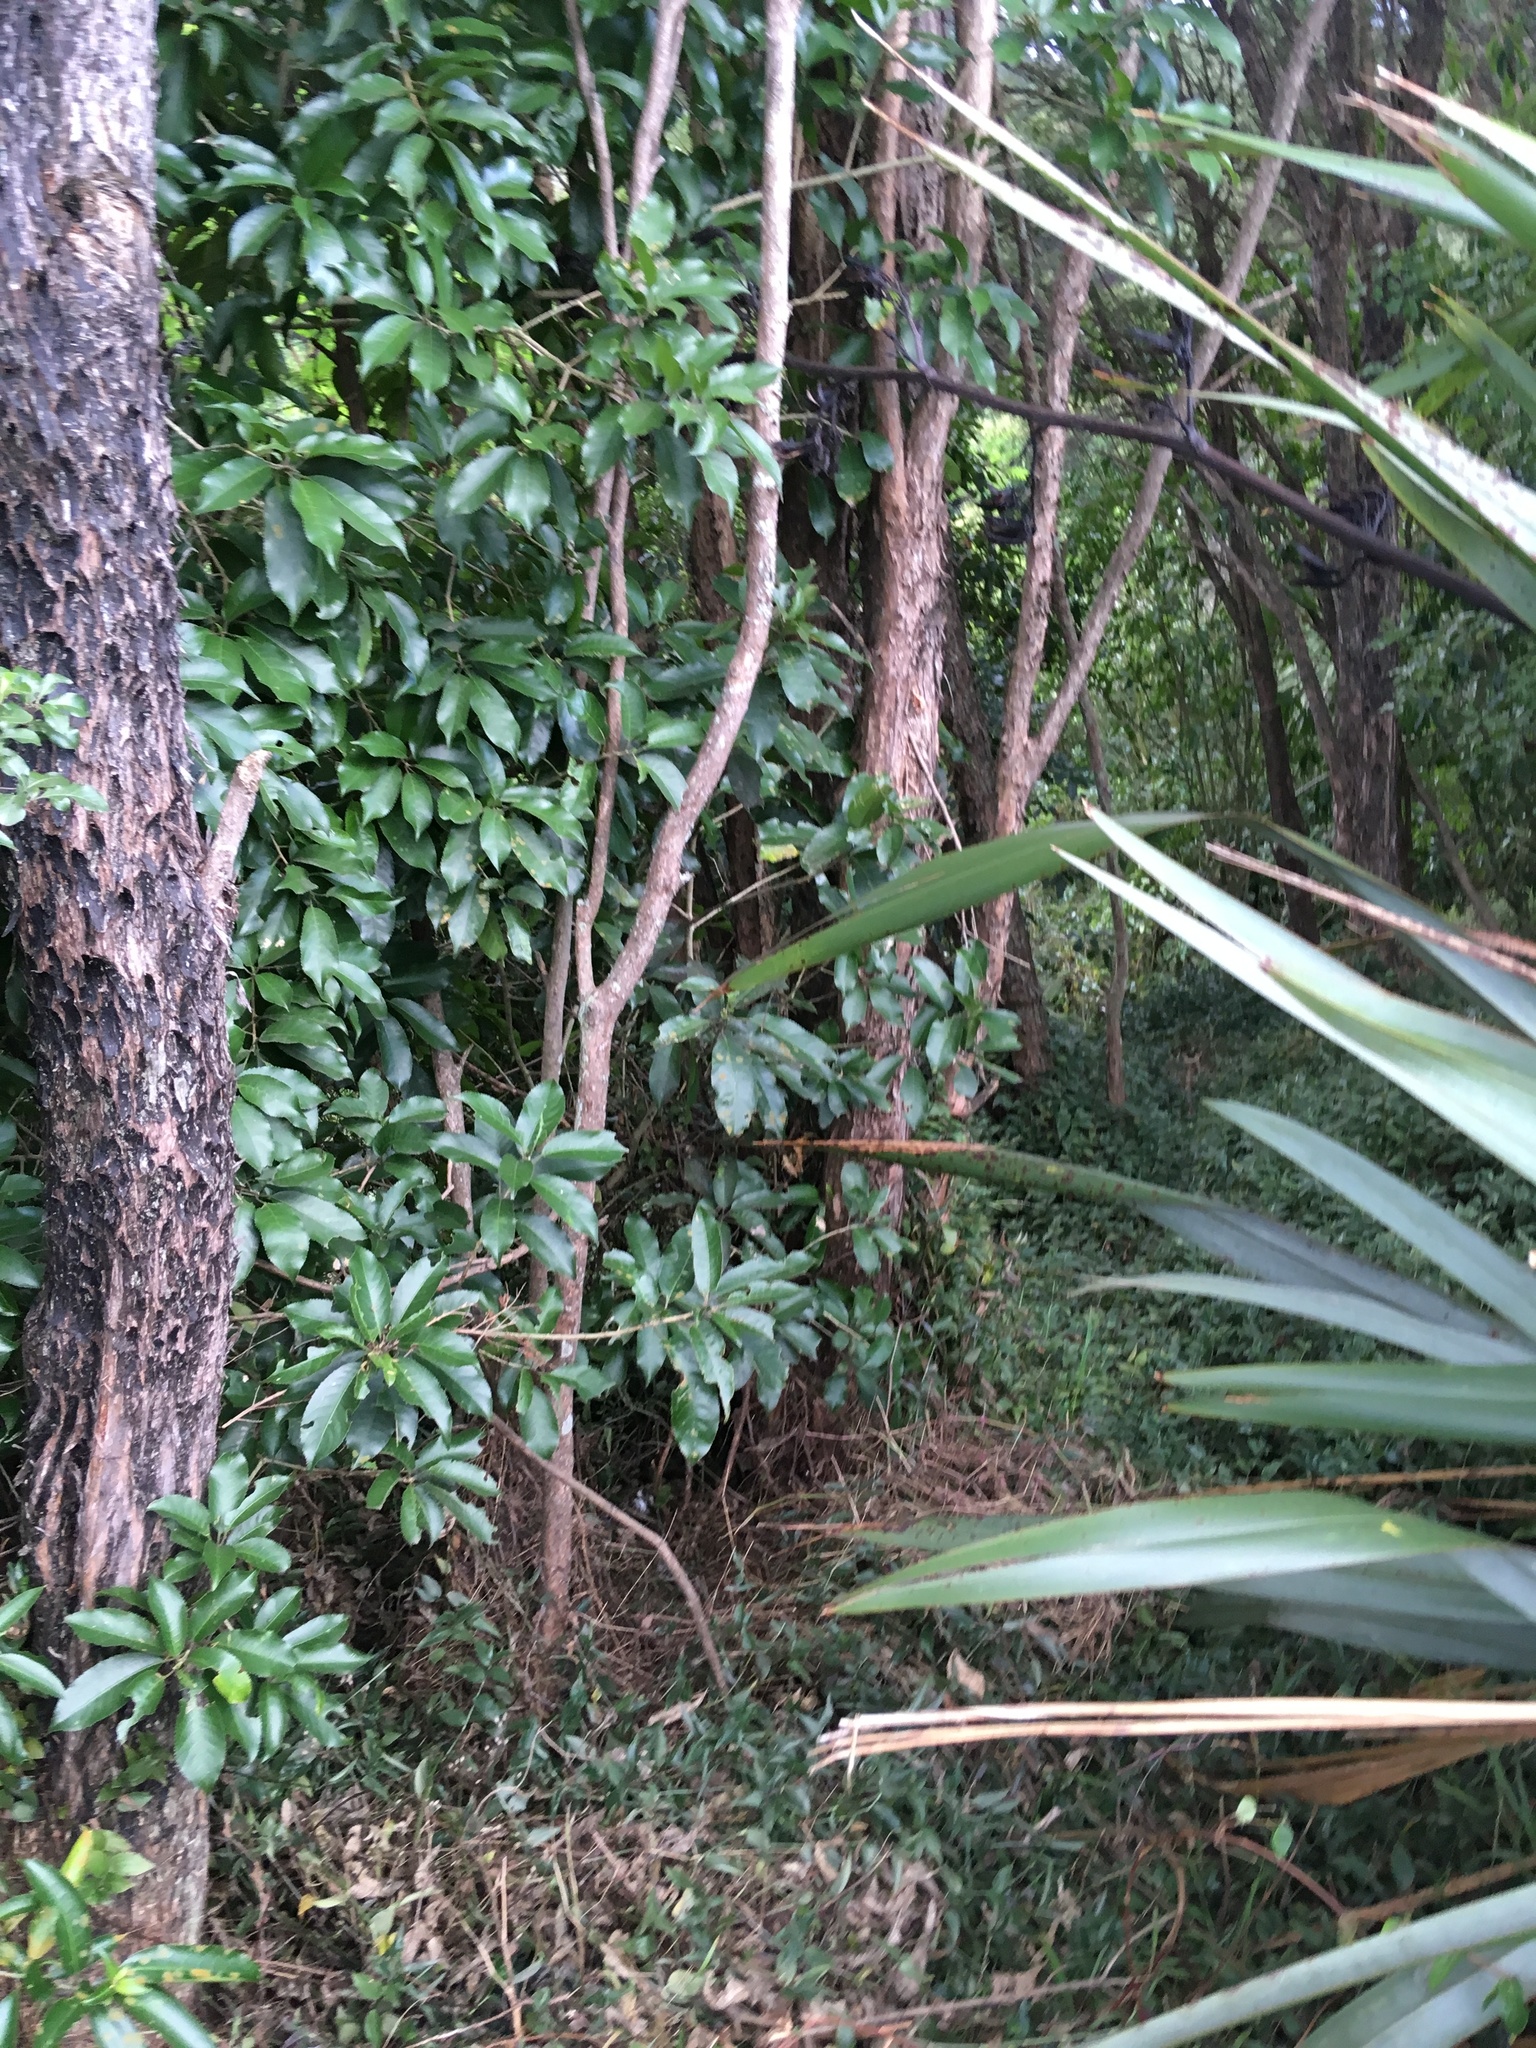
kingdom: Plantae
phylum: Tracheophyta
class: Magnoliopsida
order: Malpighiales
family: Violaceae
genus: Melicytus
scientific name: Melicytus ramiflorus
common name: Mahoe
